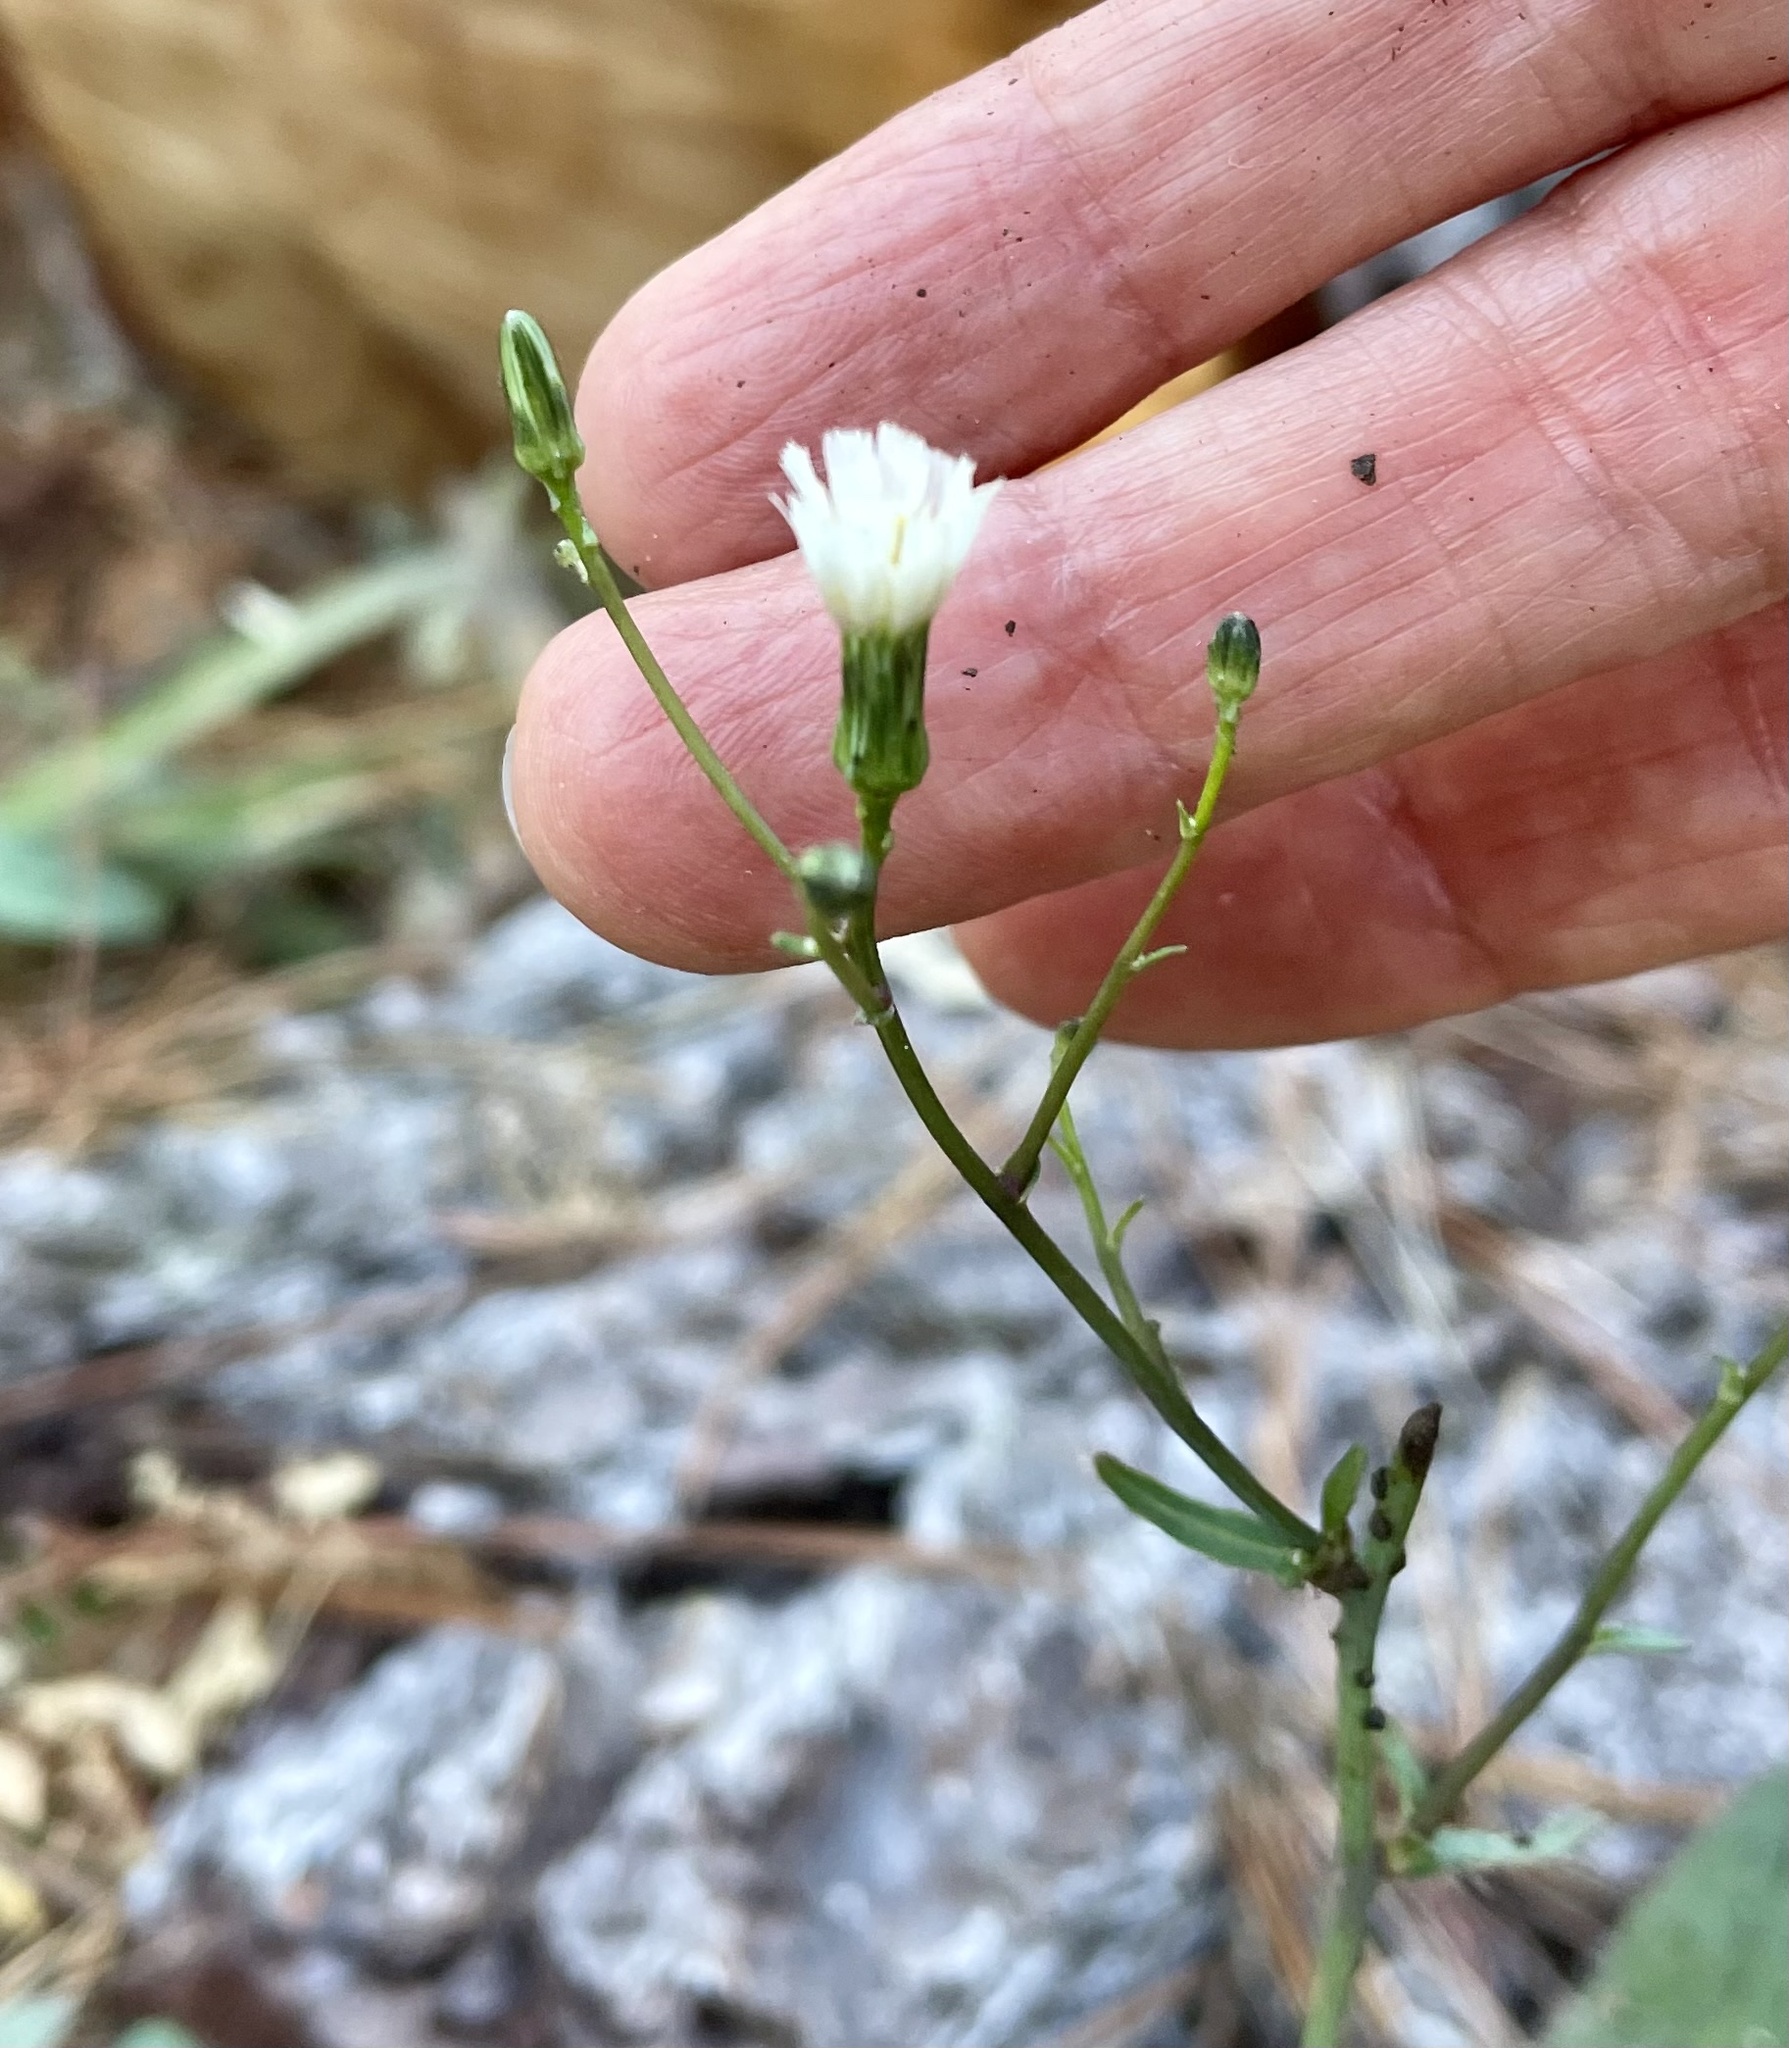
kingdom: Plantae
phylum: Tracheophyta
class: Magnoliopsida
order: Asterales
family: Asteraceae
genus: Hieracium
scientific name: Hieracium albiflorum
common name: White hawkweed
